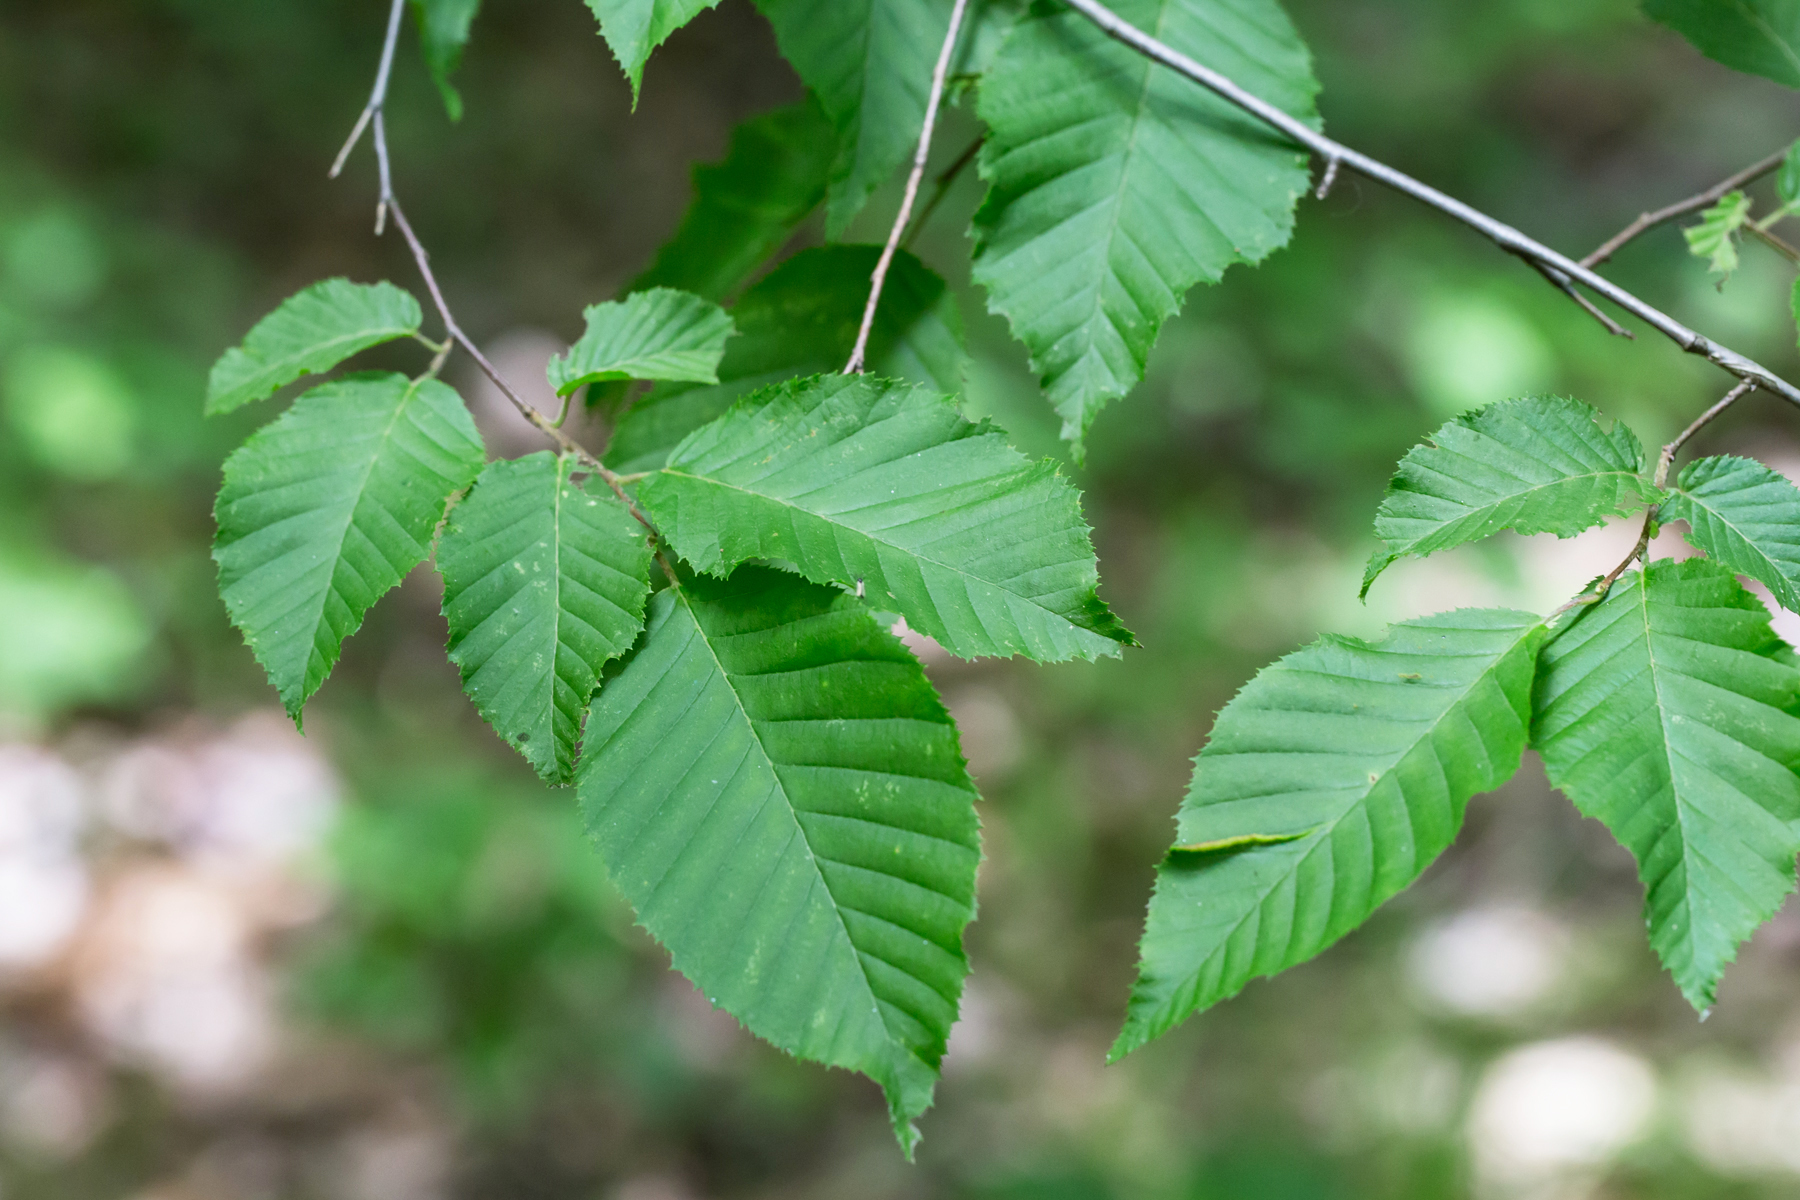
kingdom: Plantae
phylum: Tracheophyta
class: Magnoliopsida
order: Fagales
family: Betulaceae
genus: Carpinus
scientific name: Carpinus caroliniana
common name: American hornbeam
